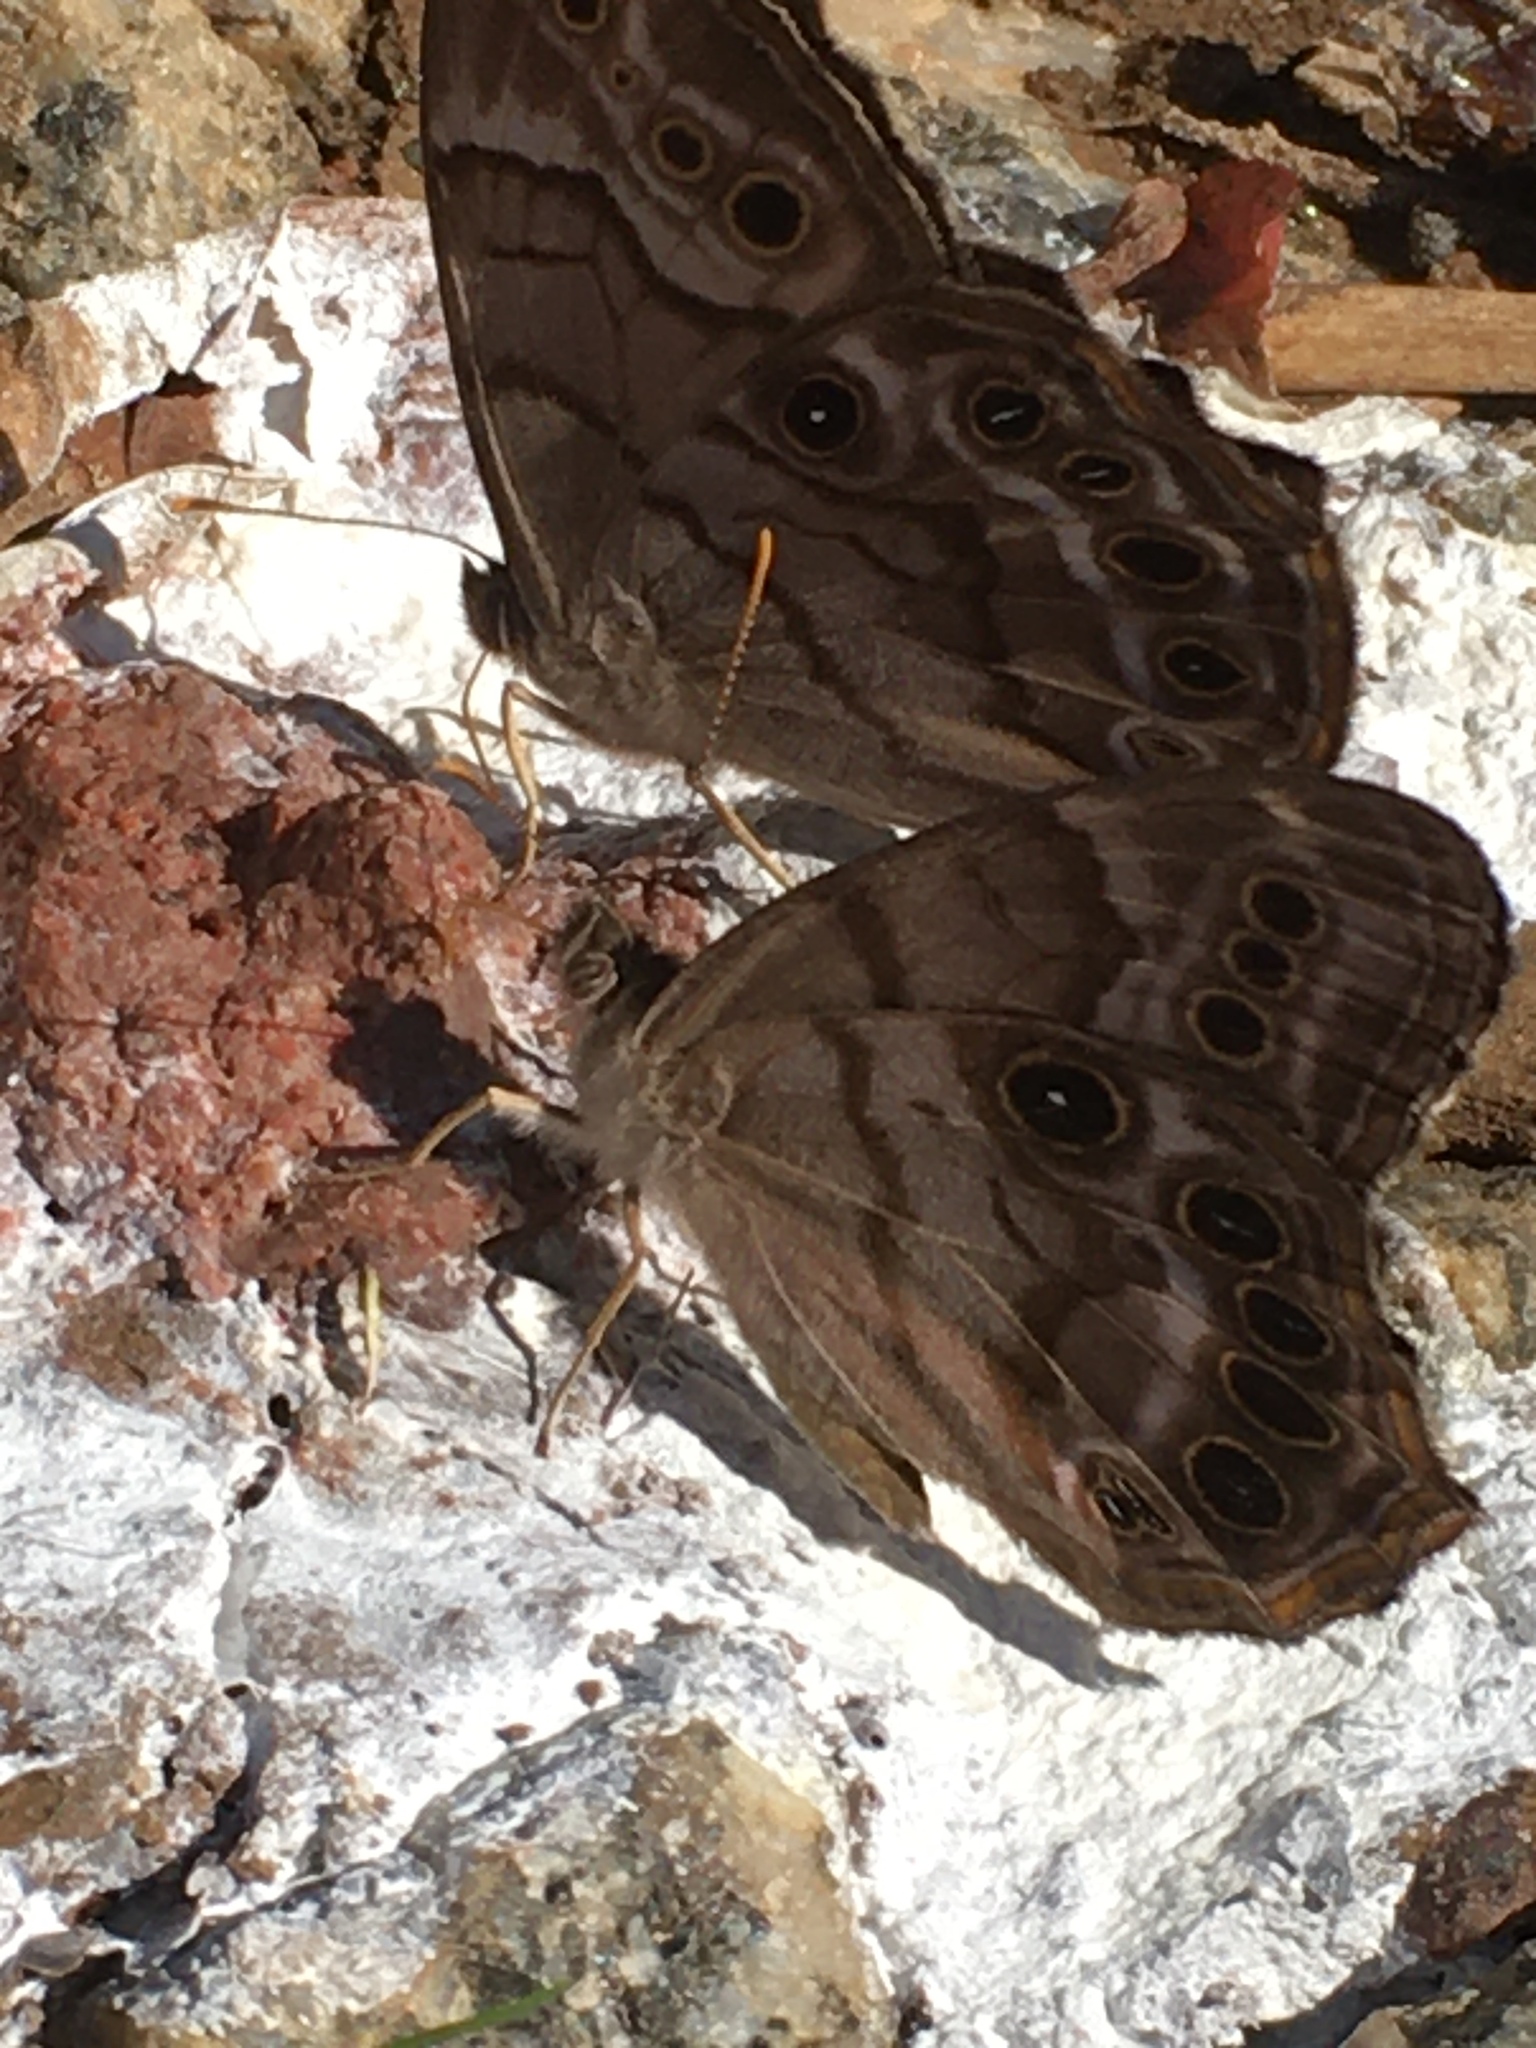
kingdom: Animalia
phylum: Arthropoda
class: Insecta
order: Lepidoptera
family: Nymphalidae
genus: Enodia
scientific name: Enodia portlandia
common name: Southern pearly-eye
